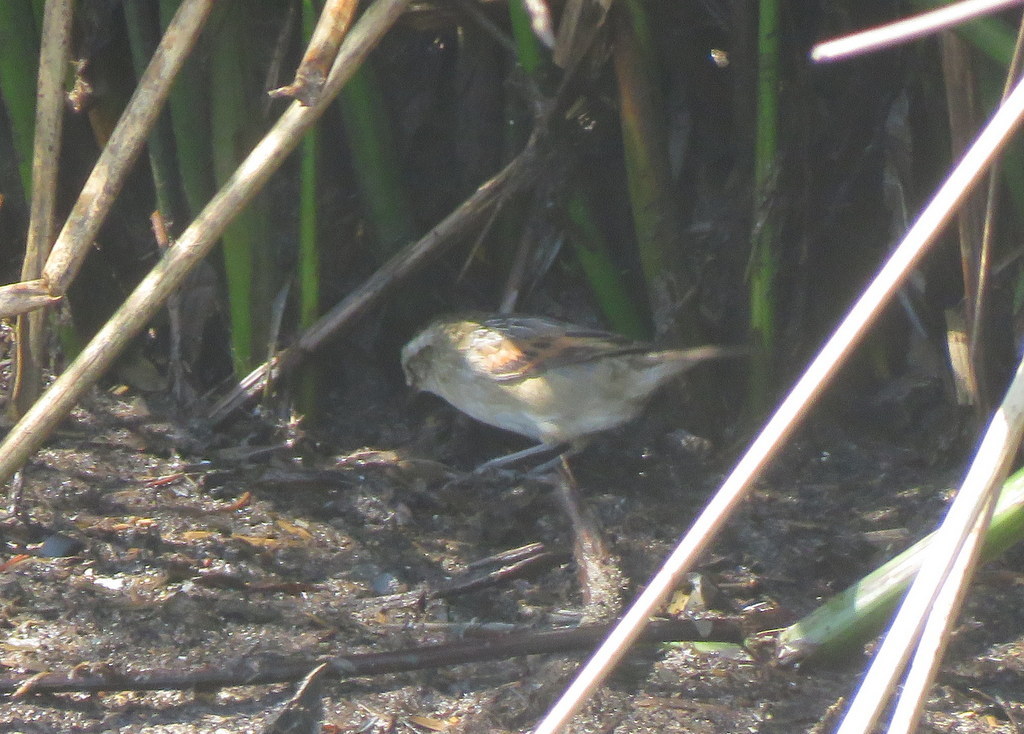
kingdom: Animalia
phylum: Chordata
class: Aves
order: Passeriformes
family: Furnariidae
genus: Phleocryptes
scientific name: Phleocryptes melanops
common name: Wren-like rushbird
